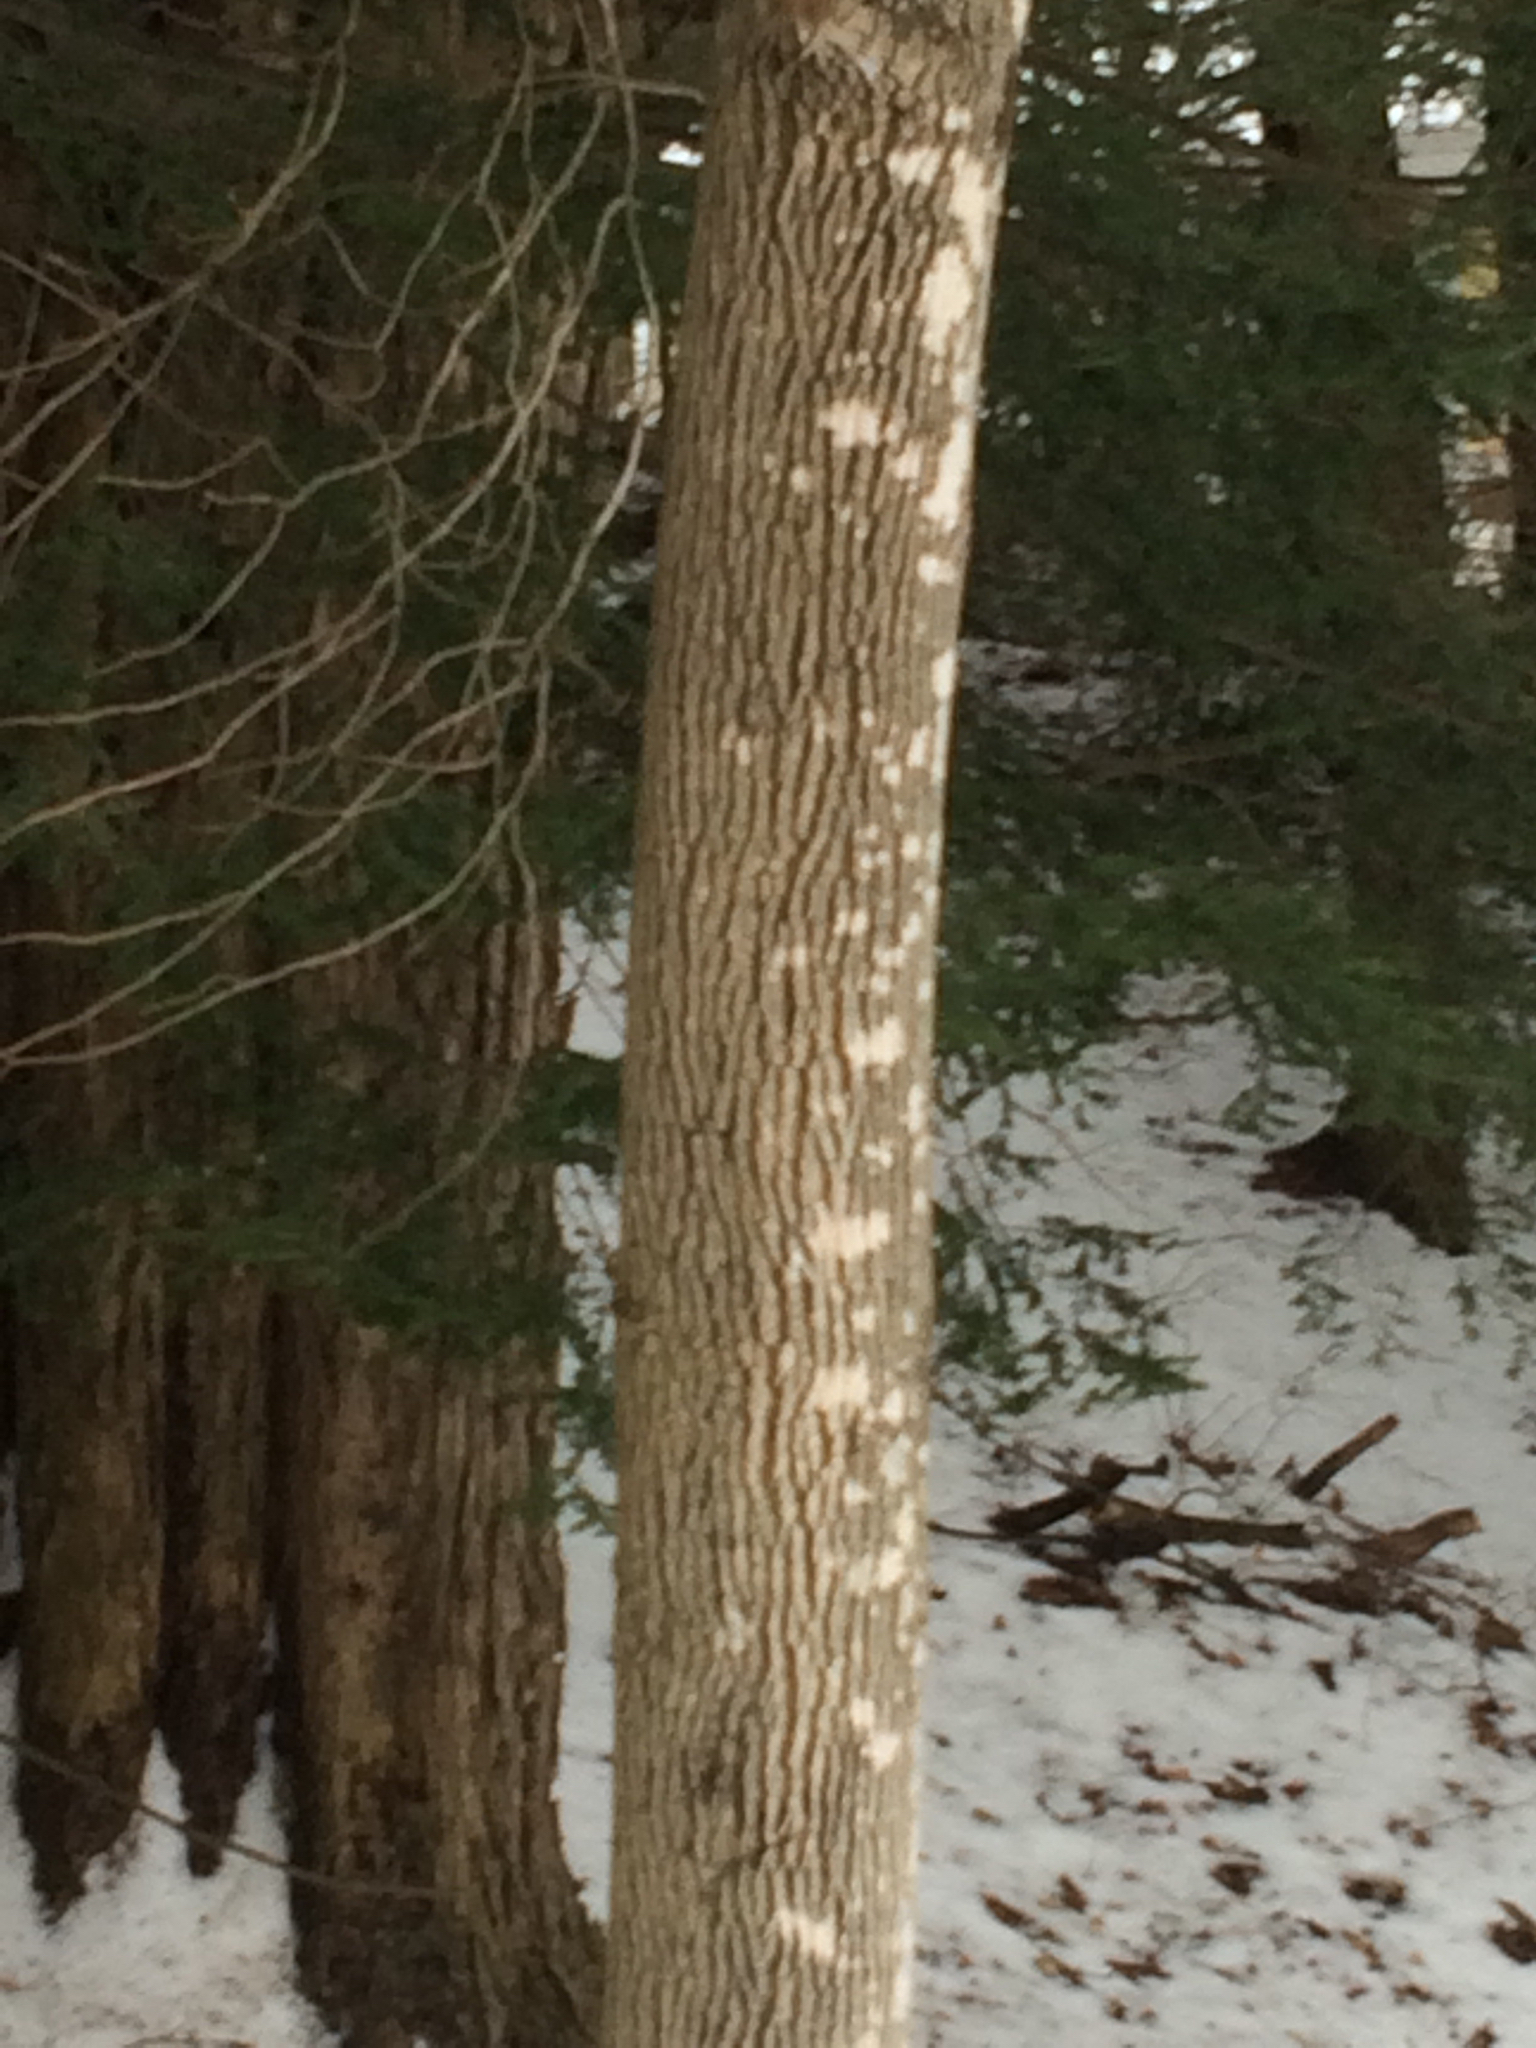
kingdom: Plantae
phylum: Tracheophyta
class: Magnoliopsida
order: Lamiales
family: Oleaceae
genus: Fraxinus
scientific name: Fraxinus americana
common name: White ash
